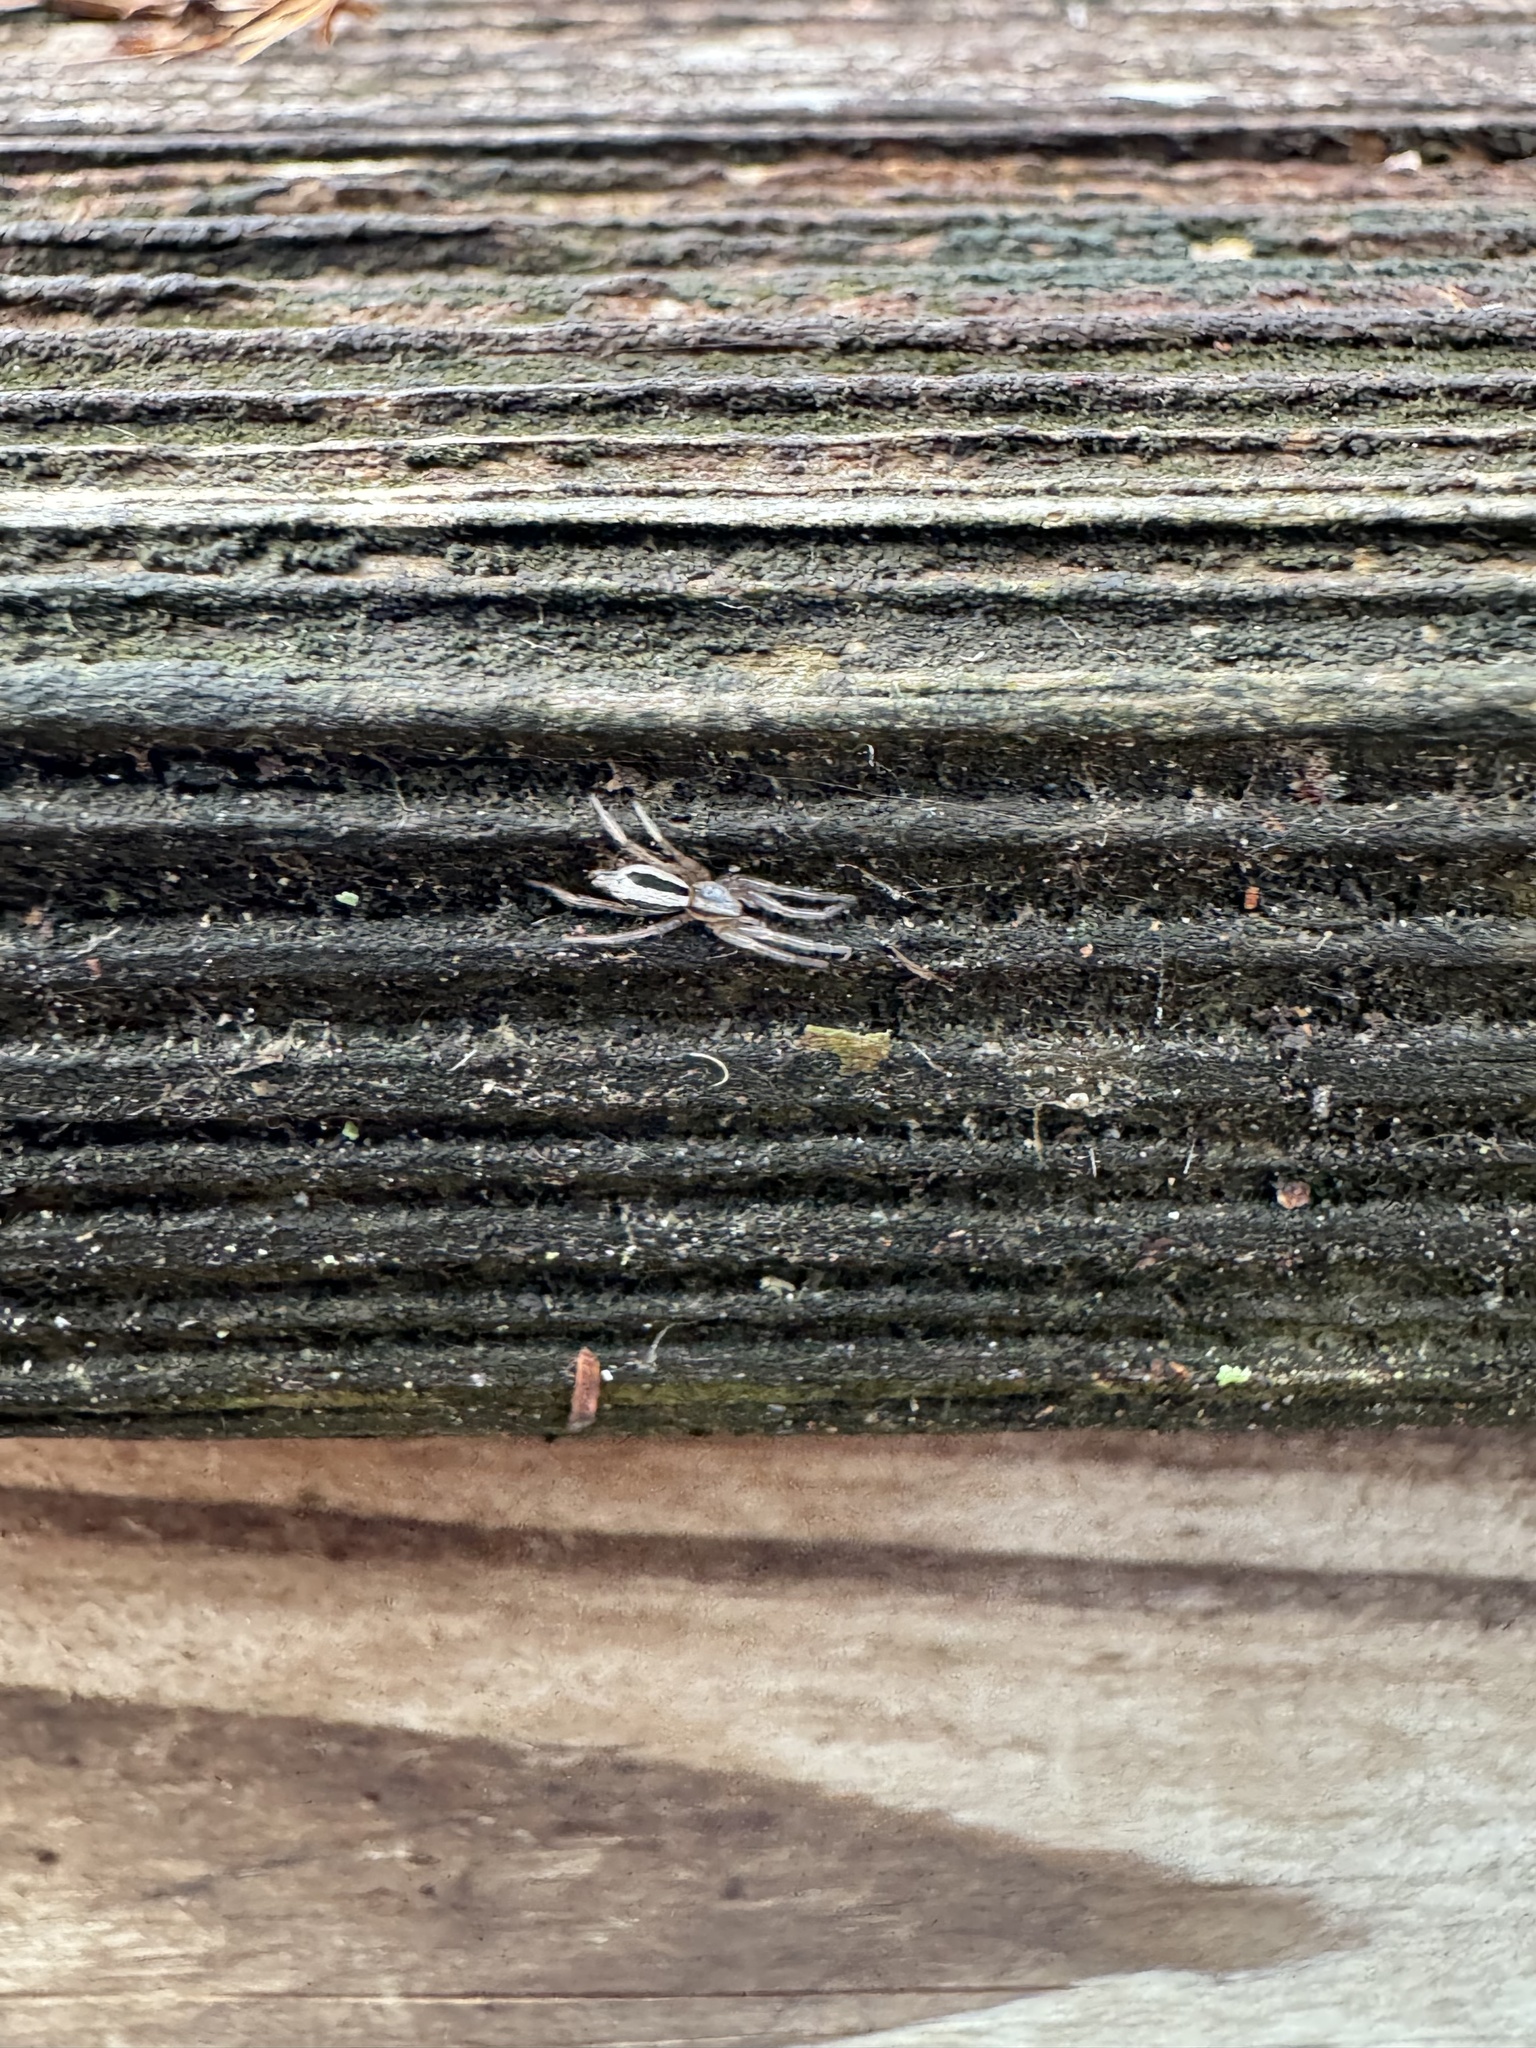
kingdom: Animalia
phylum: Arthropoda
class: Arachnida
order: Araneae
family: Gnaphosidae
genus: Cesonia
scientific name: Cesonia bilineata
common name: Two-lined stealthy ground spider
